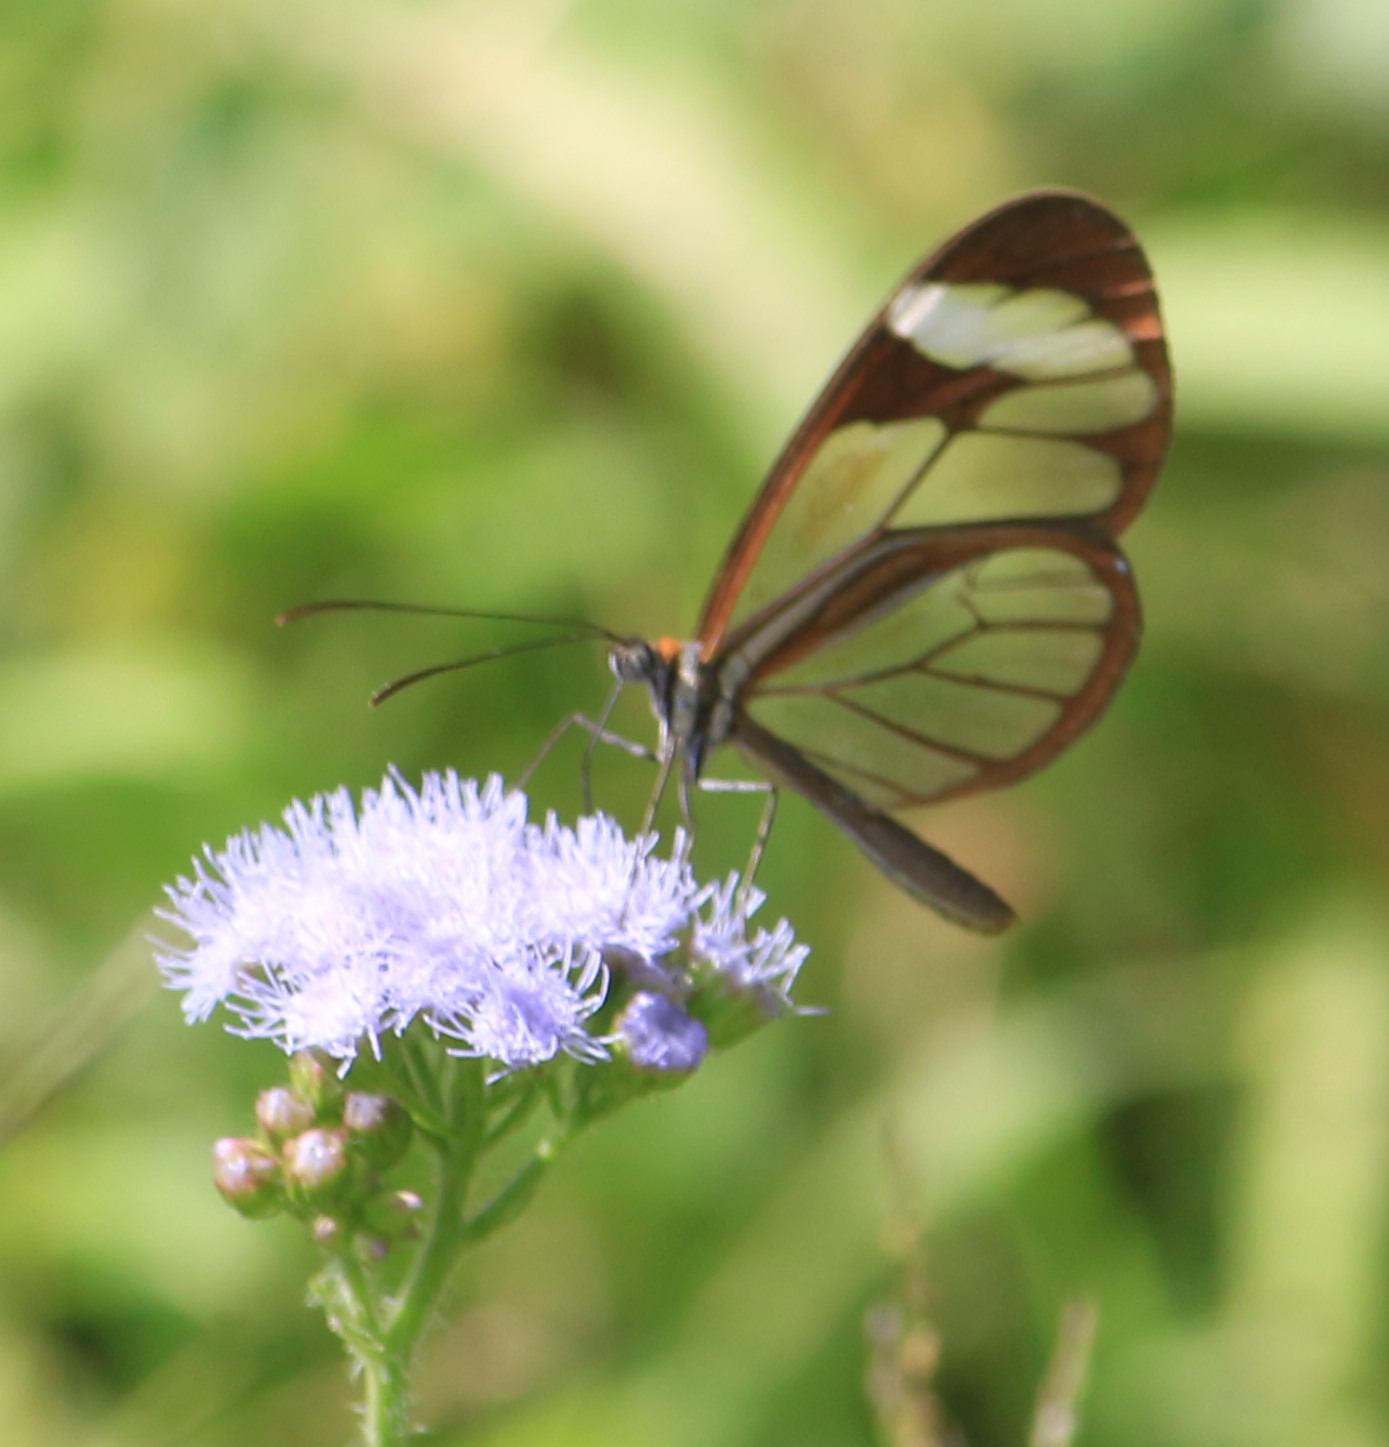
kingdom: Animalia
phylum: Arthropoda
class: Insecta
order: Lepidoptera
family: Nymphalidae
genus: Ithomia
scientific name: Ithomia patilla
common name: Patilla clearwing
